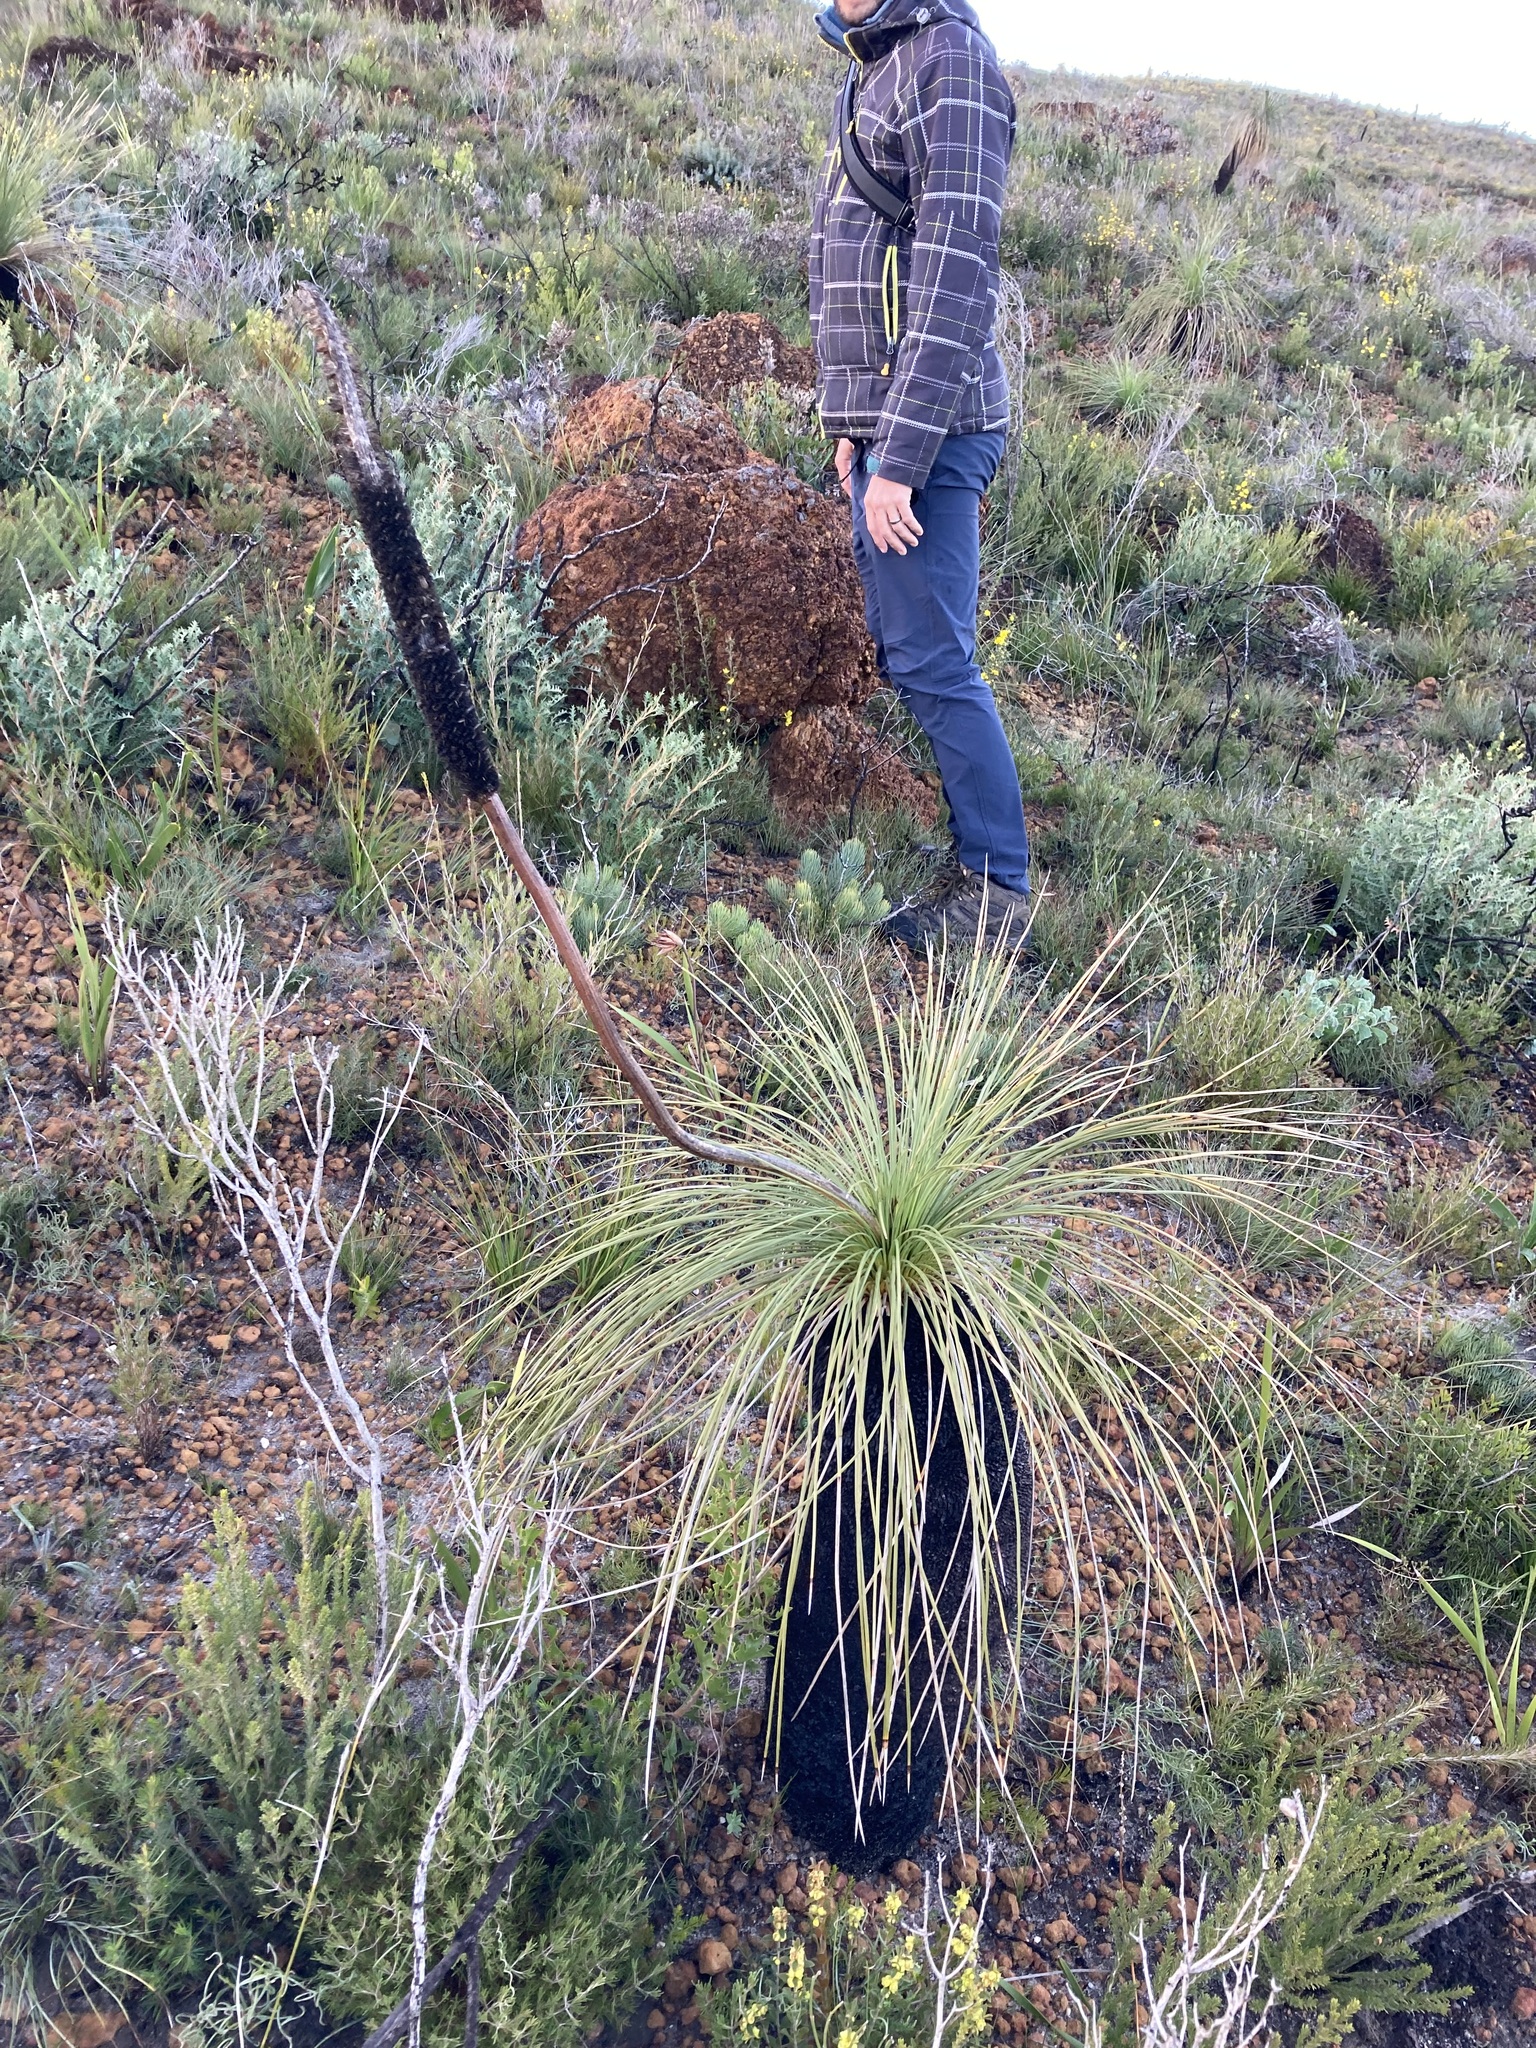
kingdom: Plantae
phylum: Tracheophyta
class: Liliopsida
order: Asparagales
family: Asphodelaceae
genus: Xanthorrhoea
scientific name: Xanthorrhoea acanthostachya
